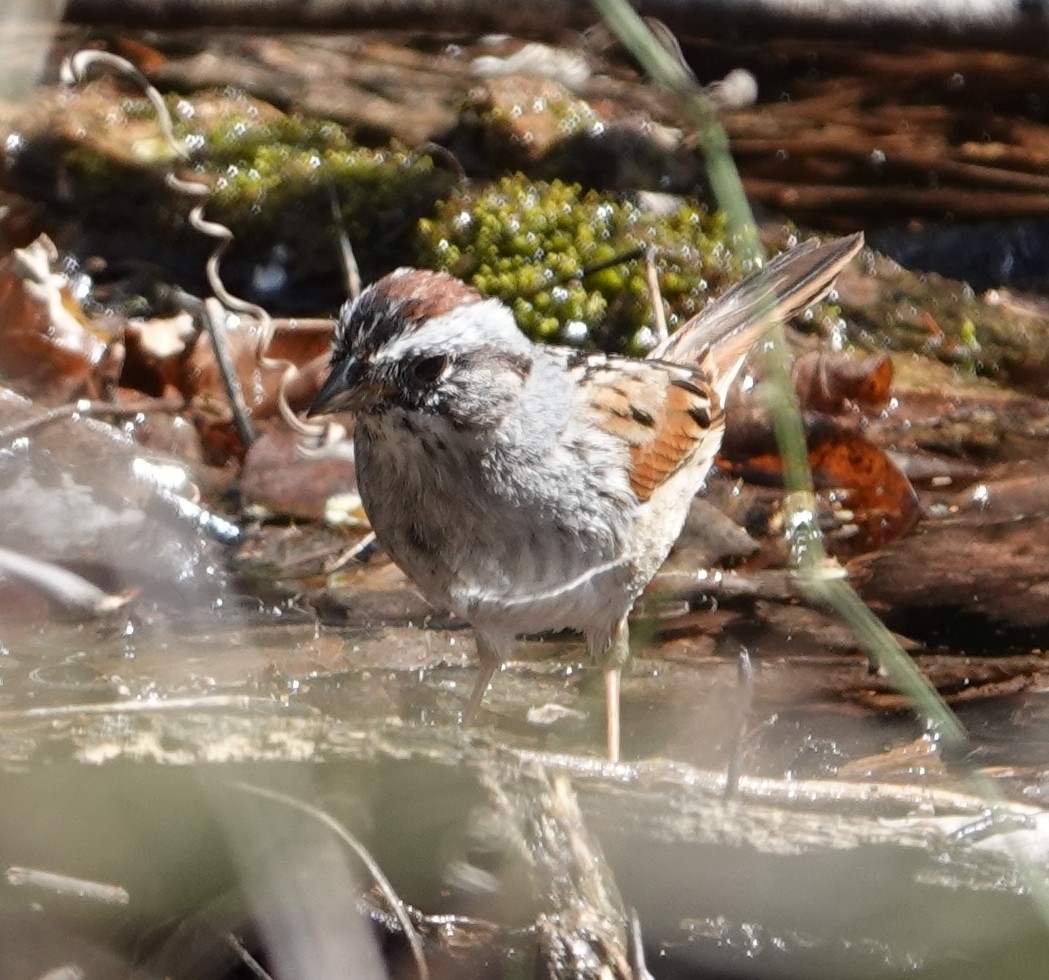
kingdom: Animalia
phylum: Chordata
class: Aves
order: Passeriformes
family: Passerellidae
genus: Melospiza
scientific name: Melospiza georgiana
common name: Swamp sparrow
